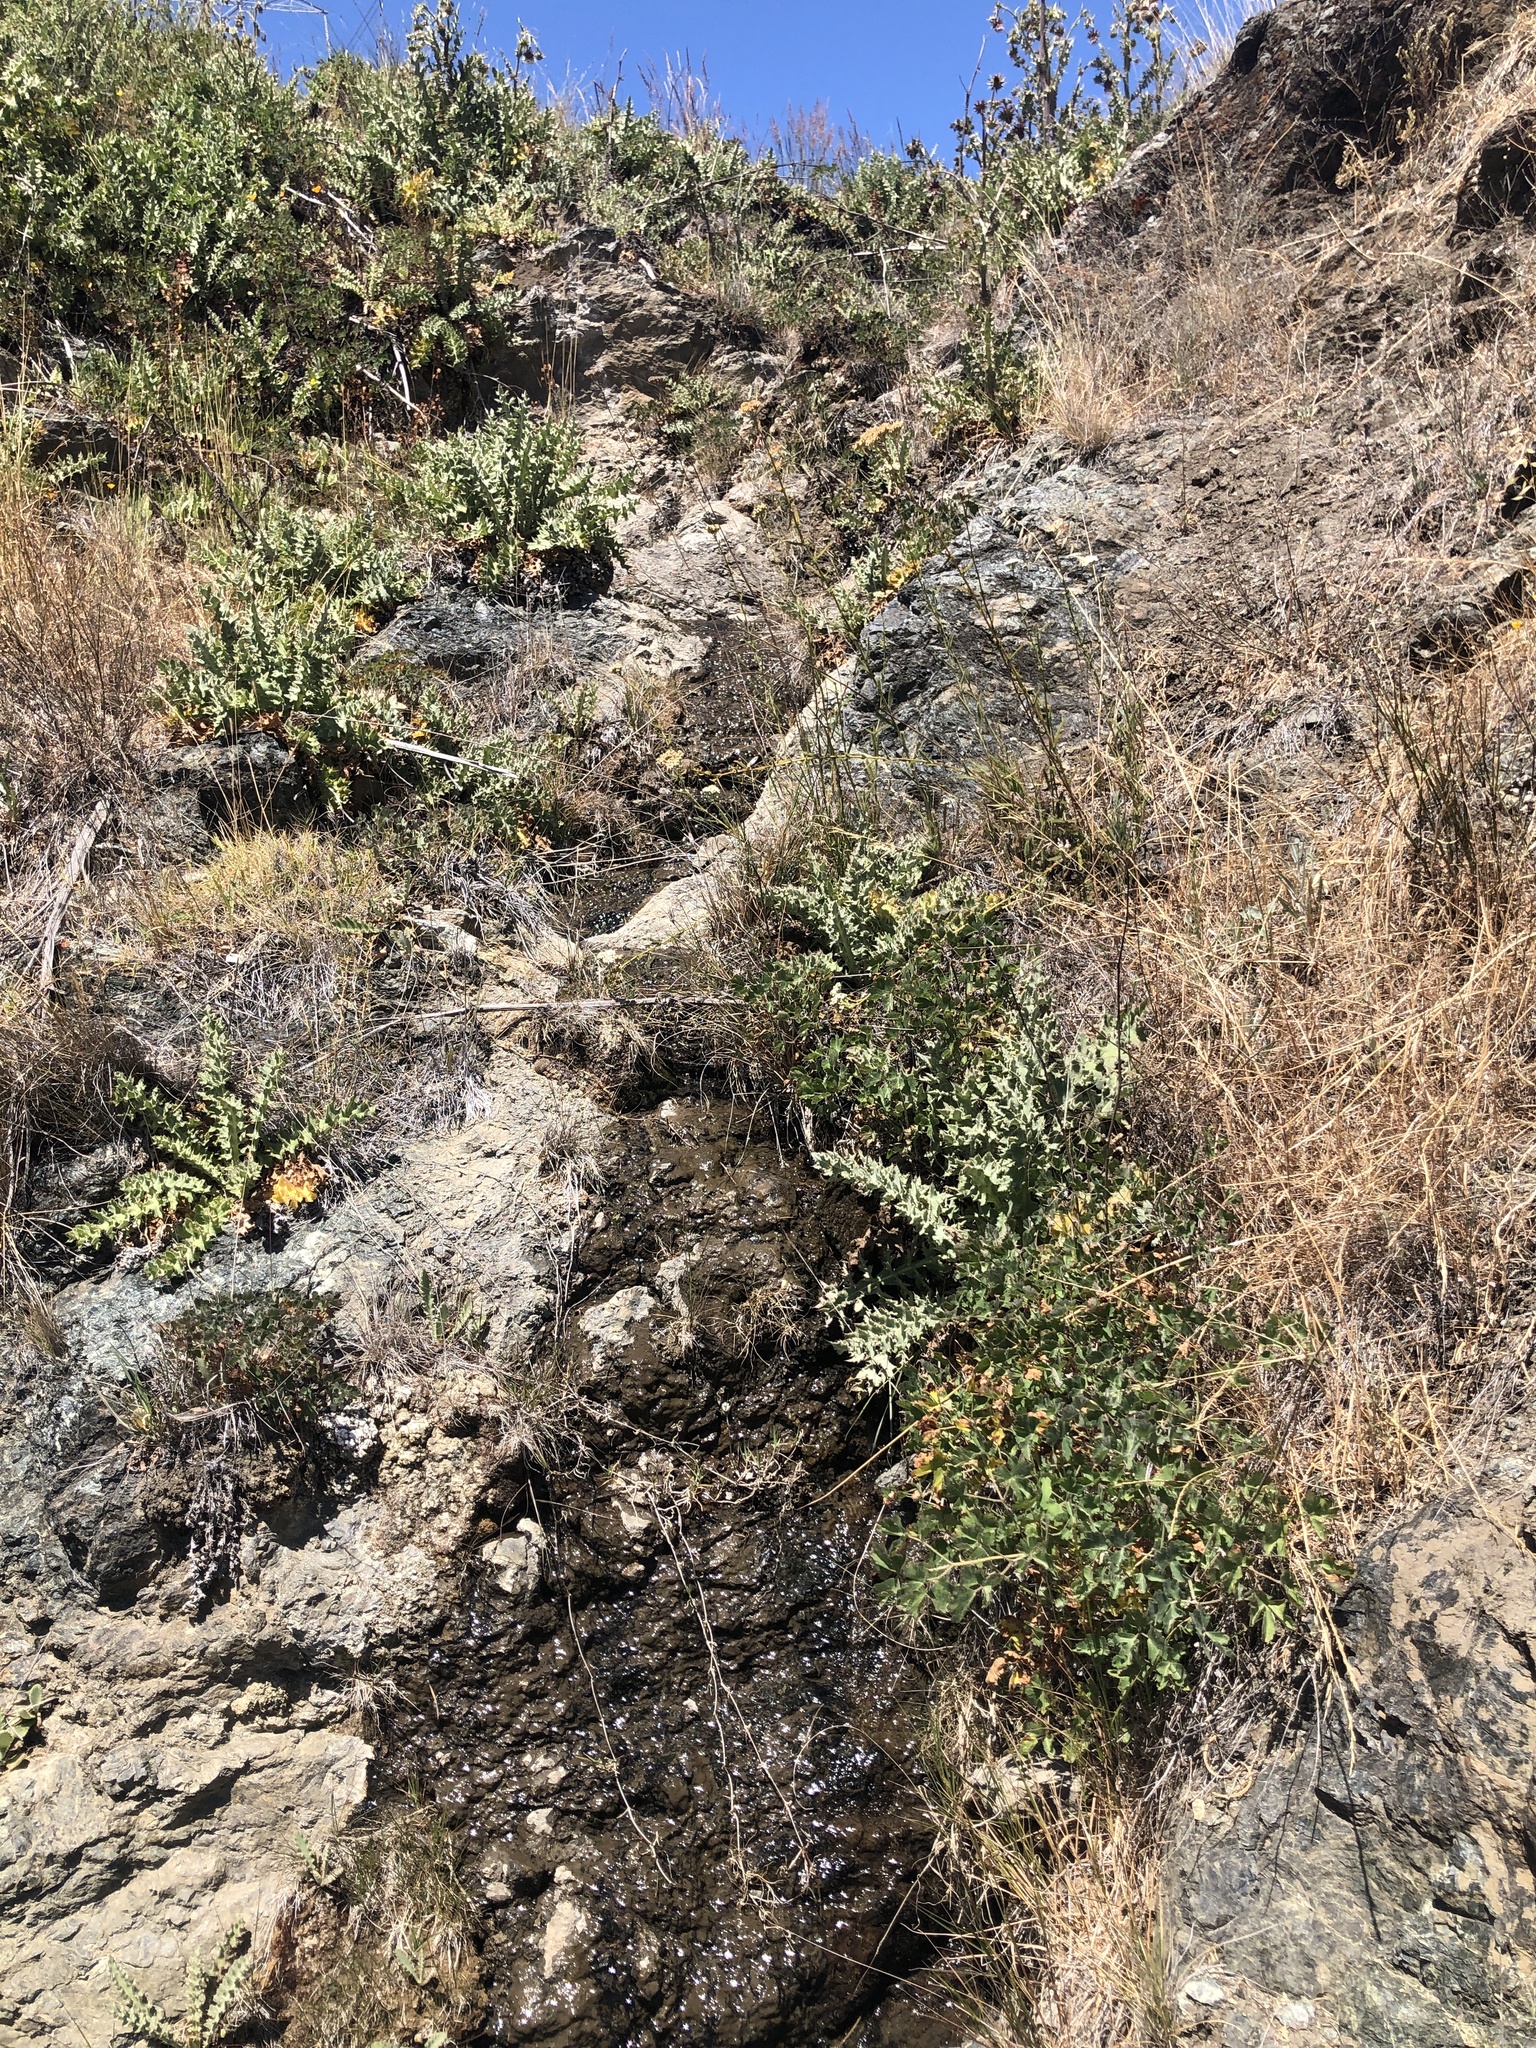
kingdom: Plantae
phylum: Tracheophyta
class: Magnoliopsida
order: Ranunculales
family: Ranunculaceae
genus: Aquilegia
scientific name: Aquilegia eximia
